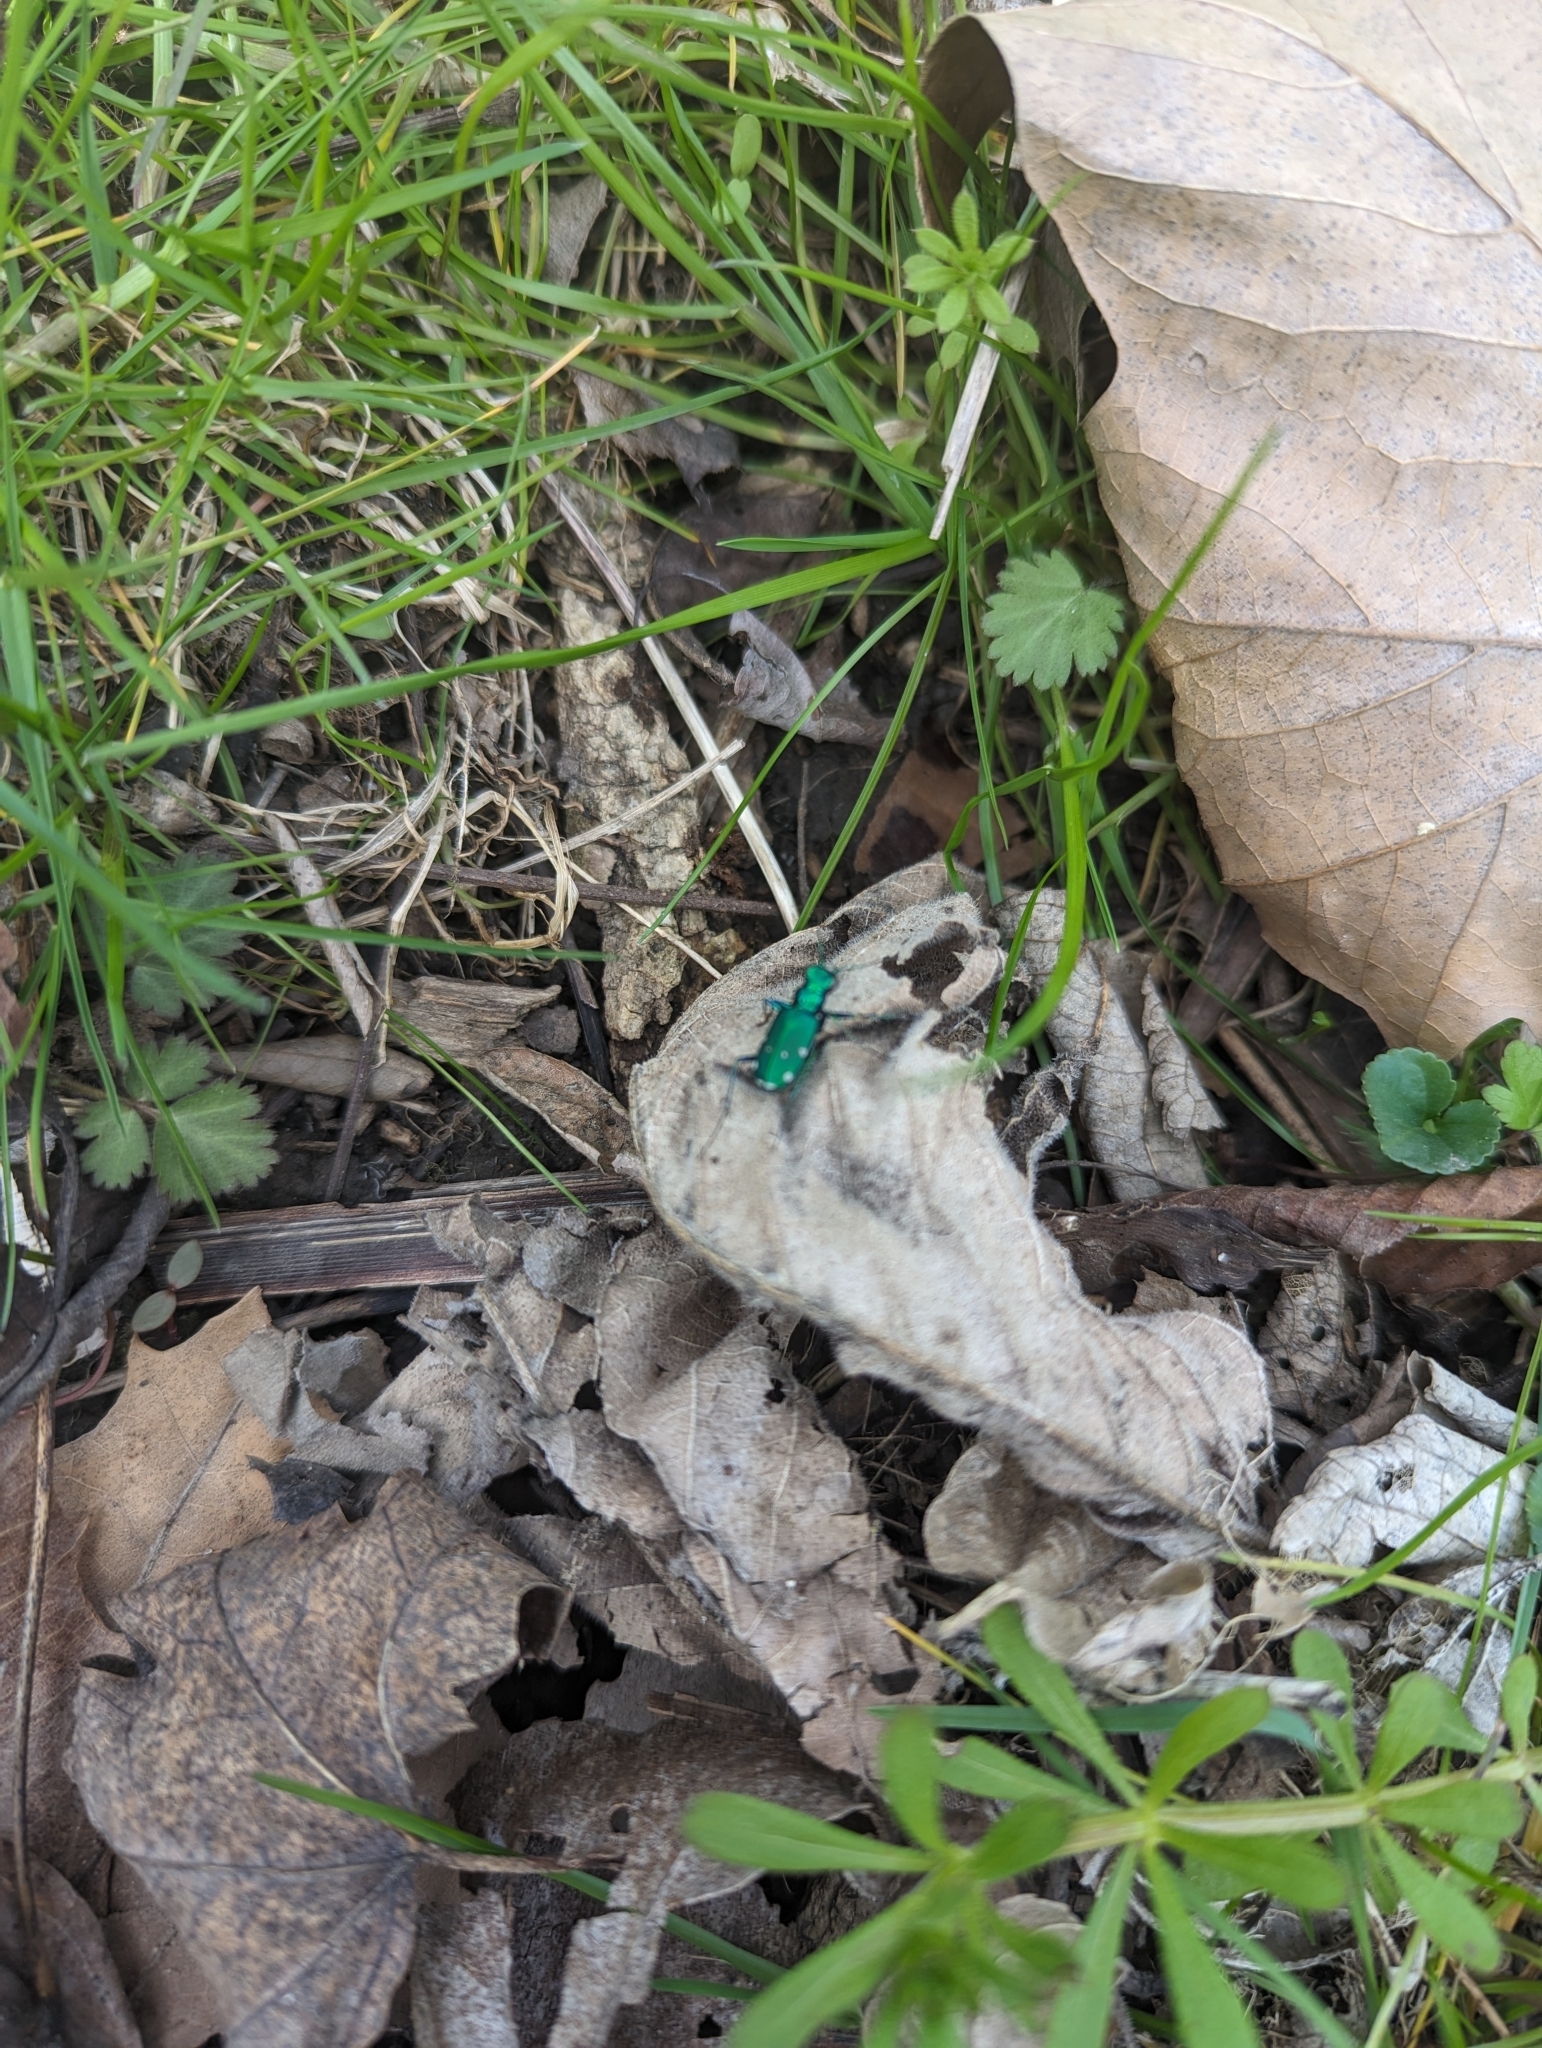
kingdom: Animalia
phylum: Arthropoda
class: Insecta
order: Coleoptera
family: Carabidae
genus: Cicindela
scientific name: Cicindela sexguttata
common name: Six-spotted tiger beetle
